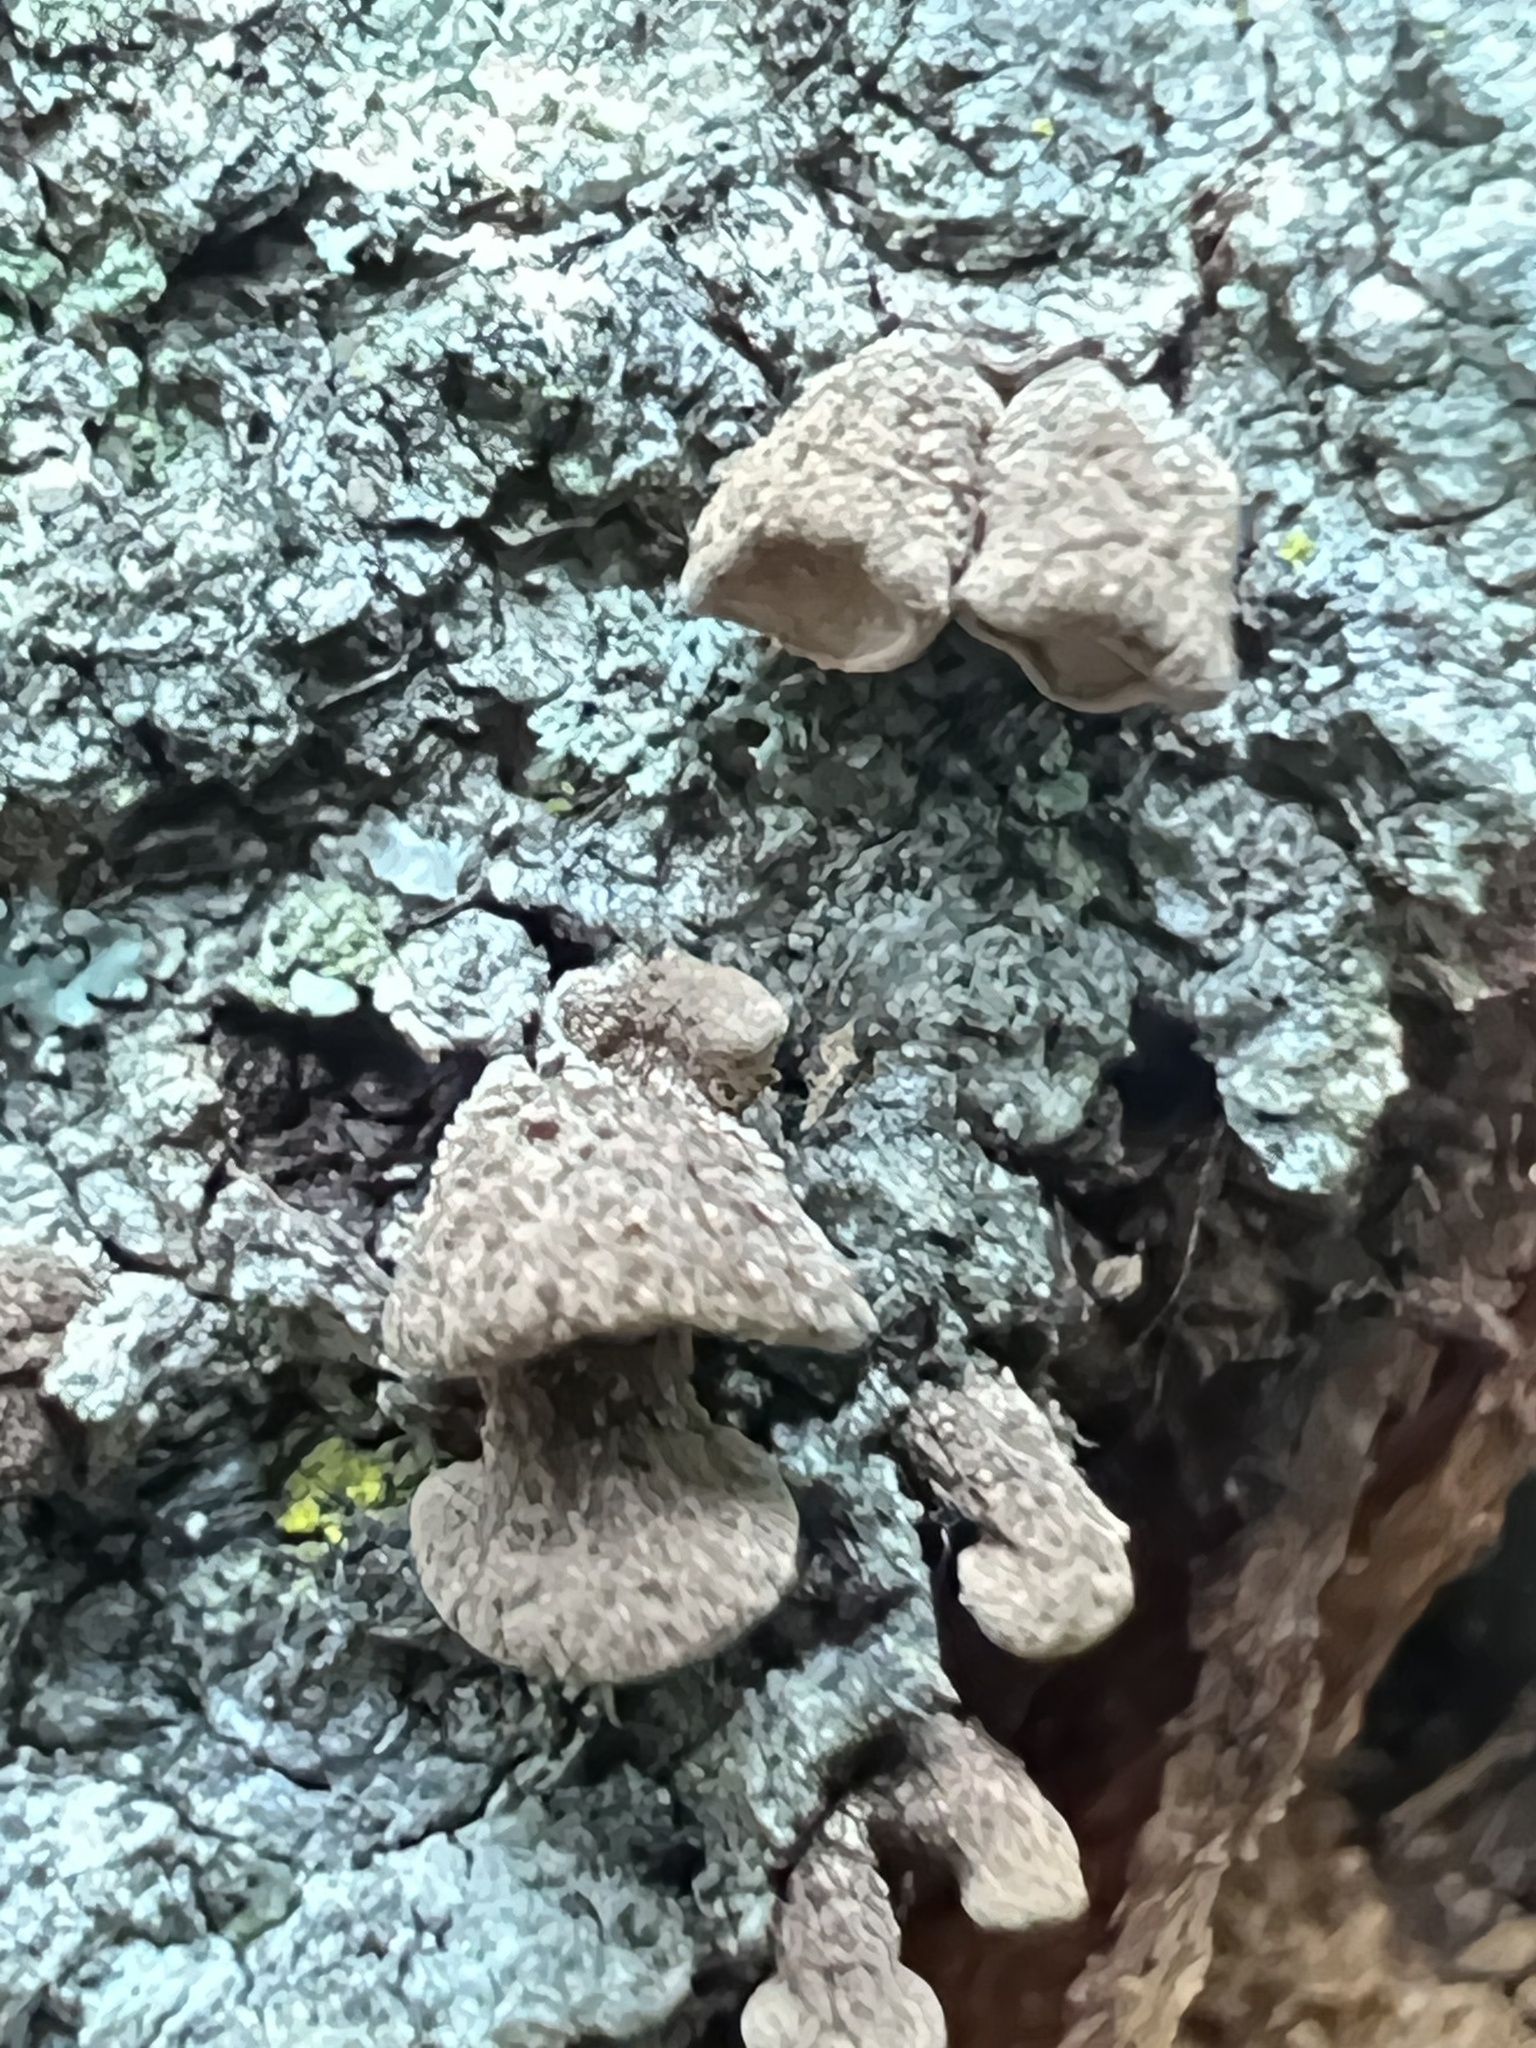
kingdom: Fungi
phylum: Basidiomycota
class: Agaricomycetes
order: Agaricales
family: Schizophyllaceae
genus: Porodisculus
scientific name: Porodisculus pendulus
